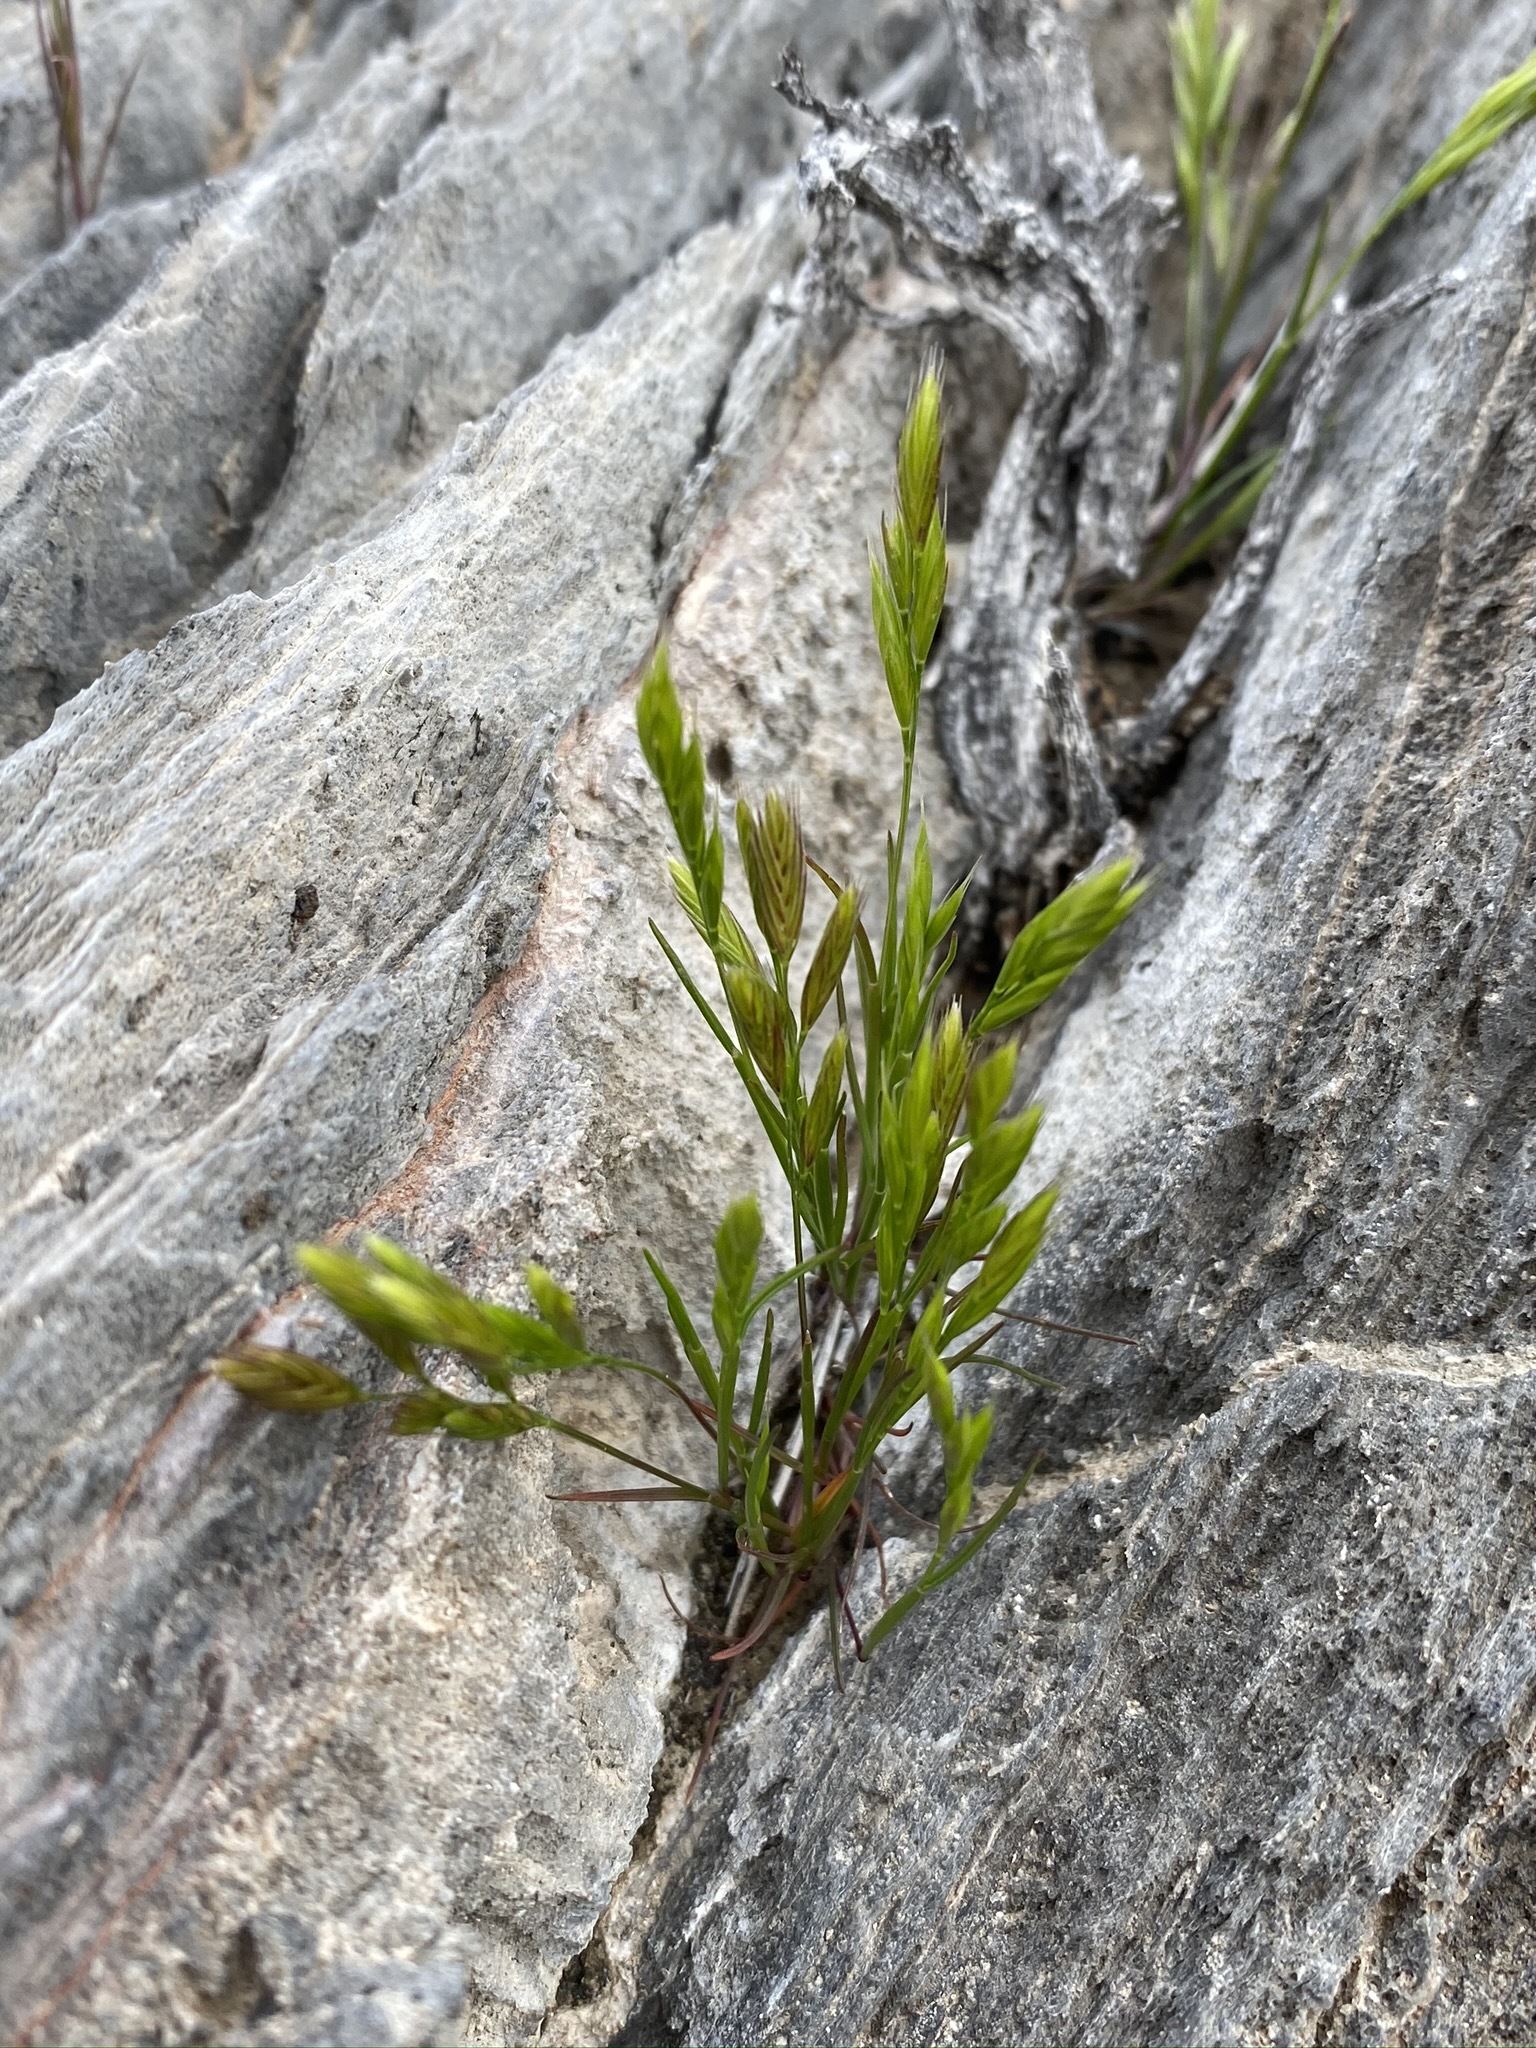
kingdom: Plantae
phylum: Tracheophyta
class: Liliopsida
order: Poales
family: Poaceae
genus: Festuca
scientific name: Festuca octoflora
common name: Sixweeks grass
